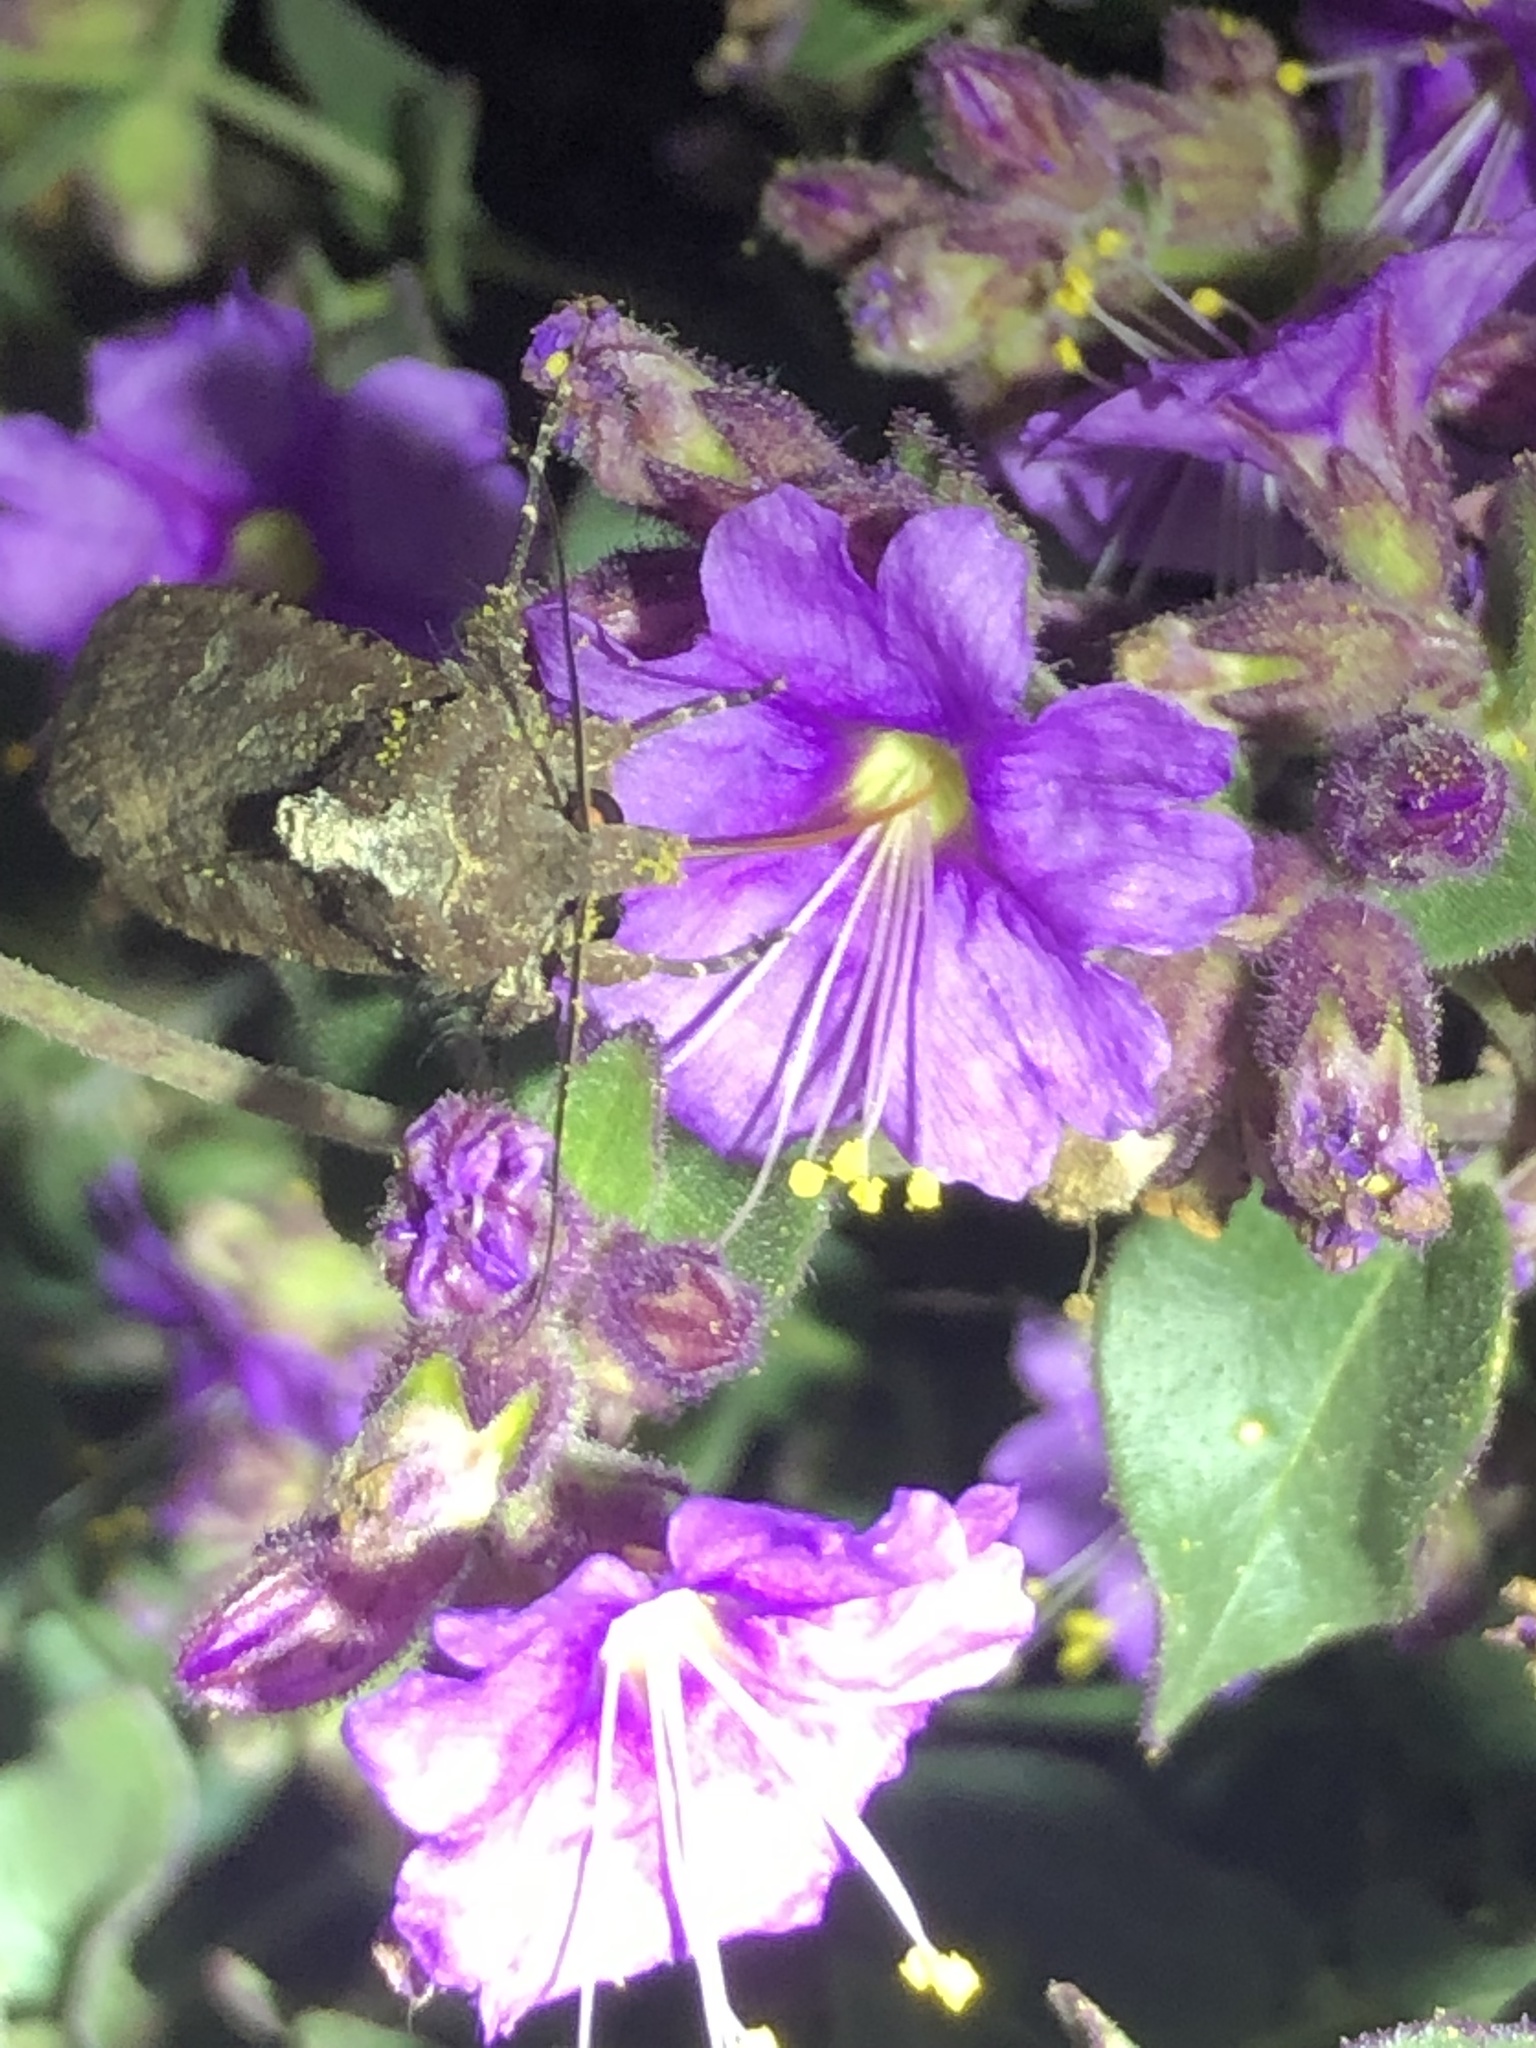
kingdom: Animalia
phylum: Arthropoda
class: Insecta
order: Lepidoptera
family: Noctuidae
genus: Peridroma
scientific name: Peridroma saucia
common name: Pearly underwing
